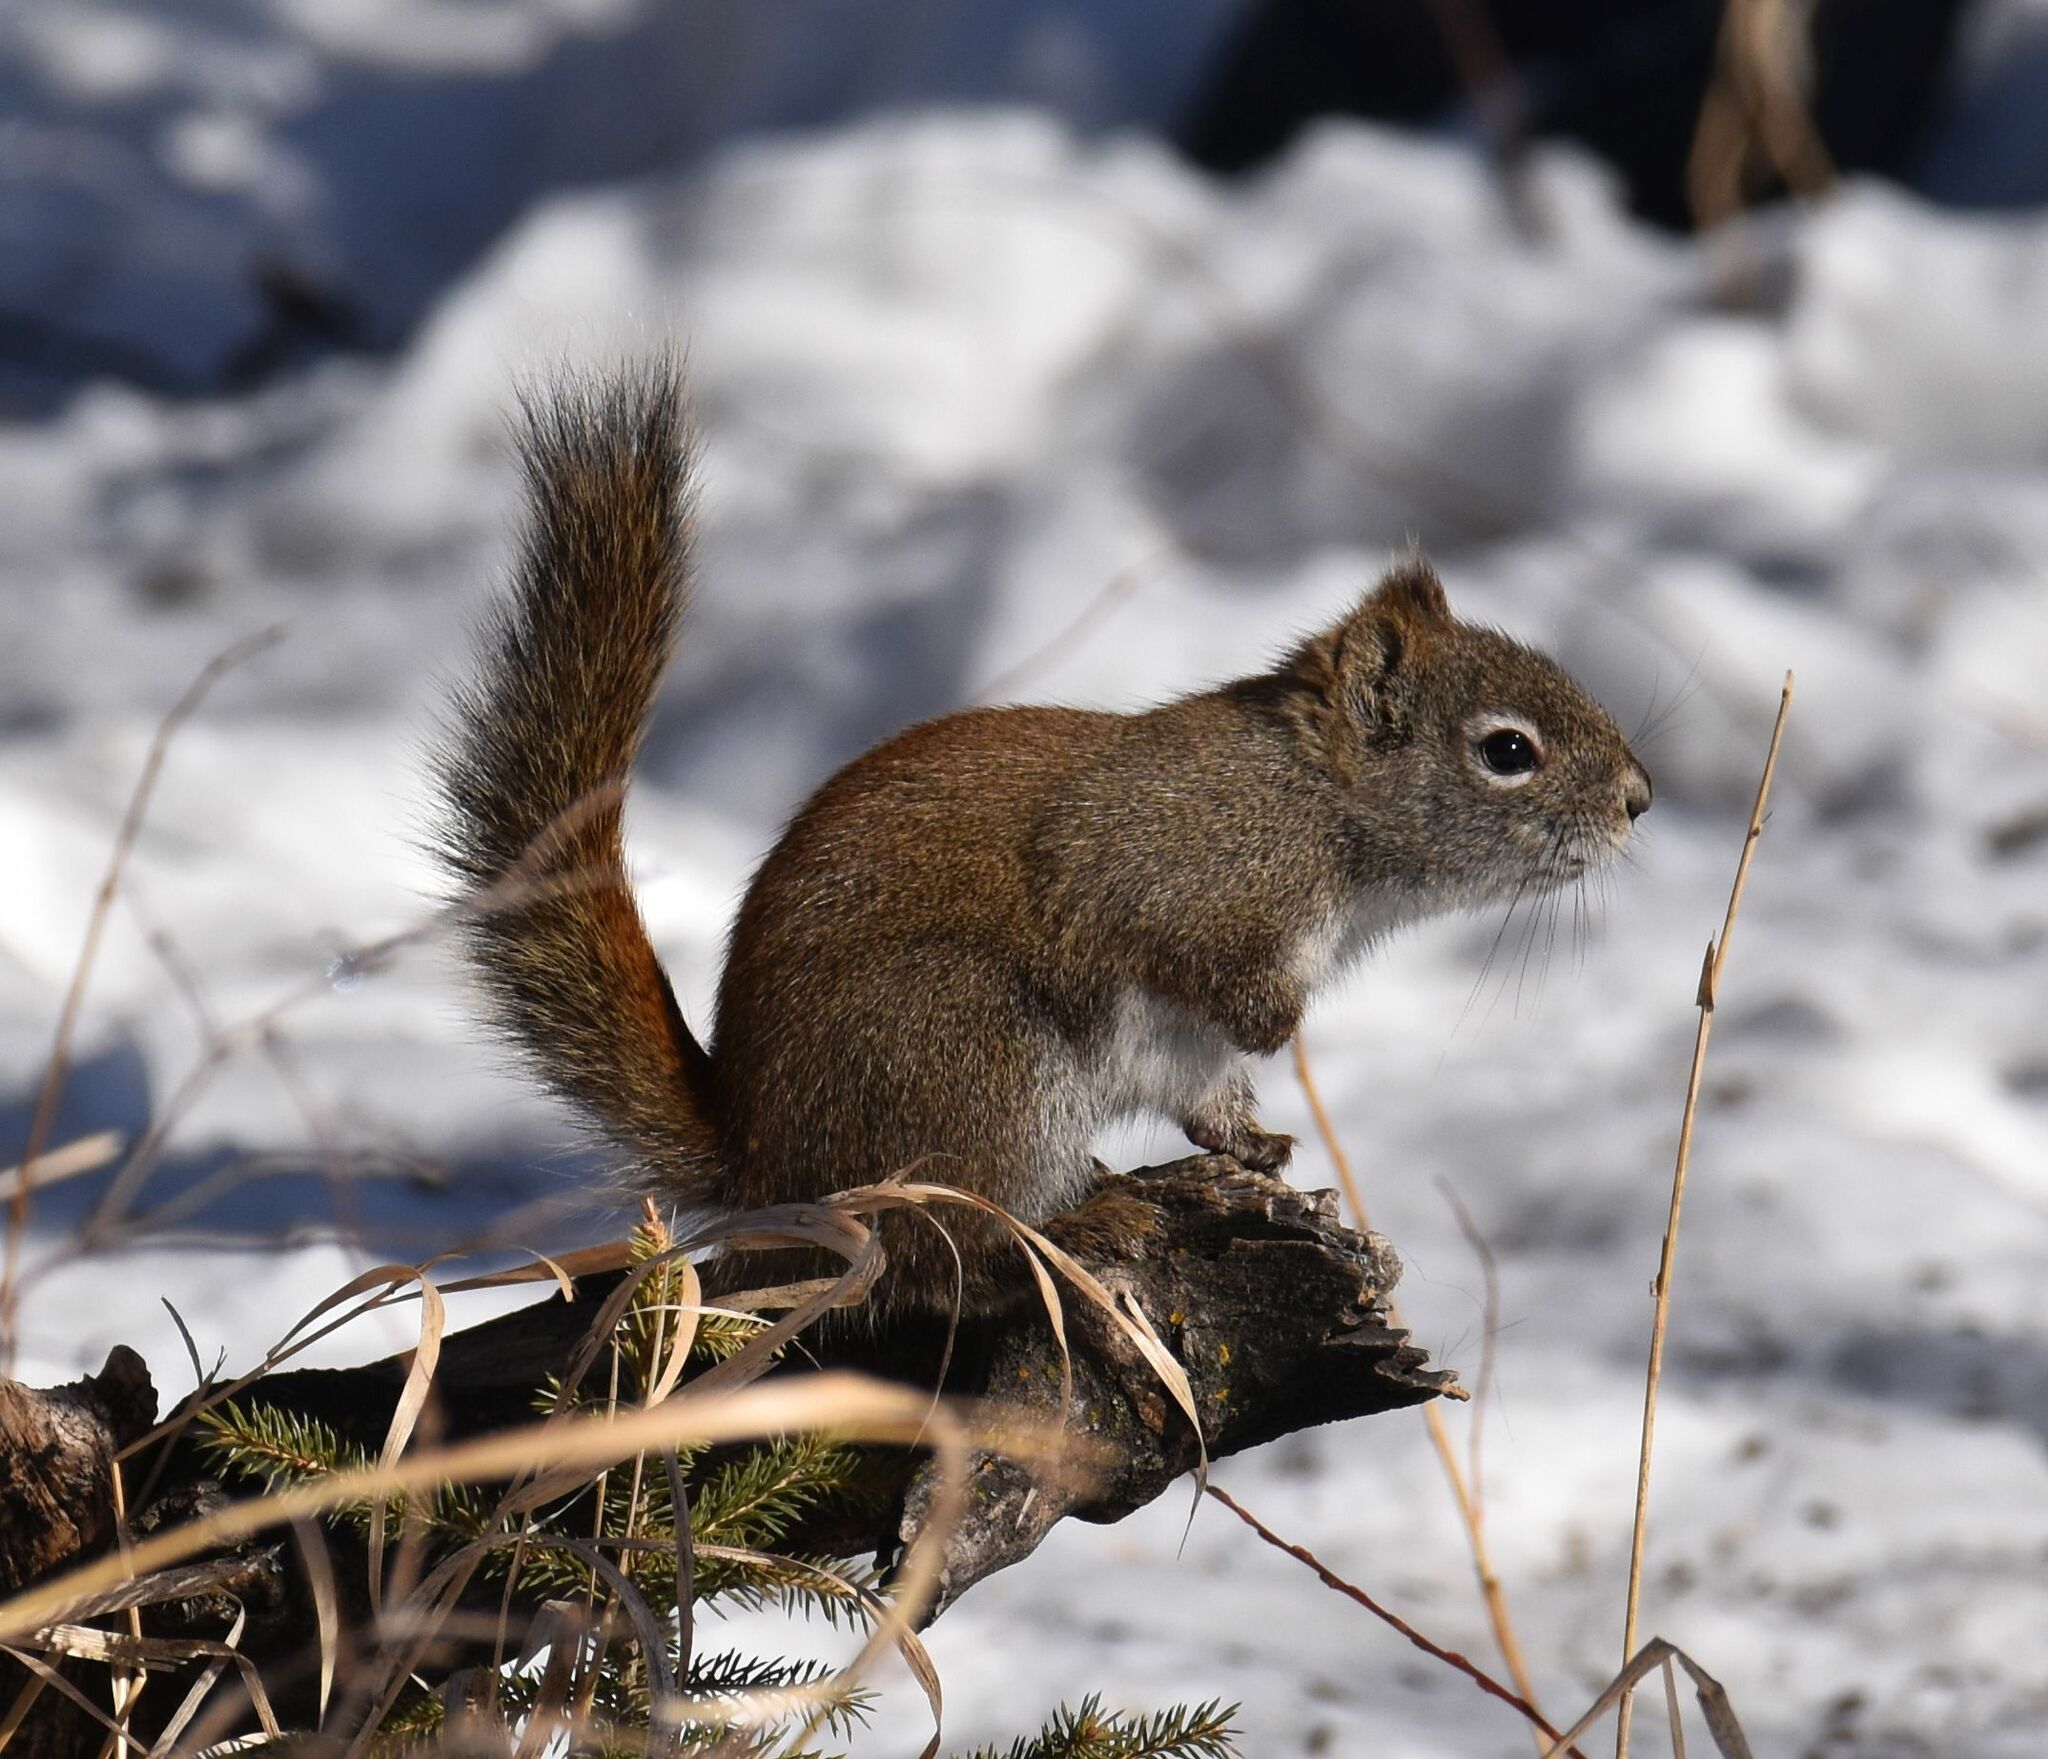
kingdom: Animalia
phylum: Chordata
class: Mammalia
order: Rodentia
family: Sciuridae
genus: Tamiasciurus
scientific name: Tamiasciurus hudsonicus
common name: Red squirrel
